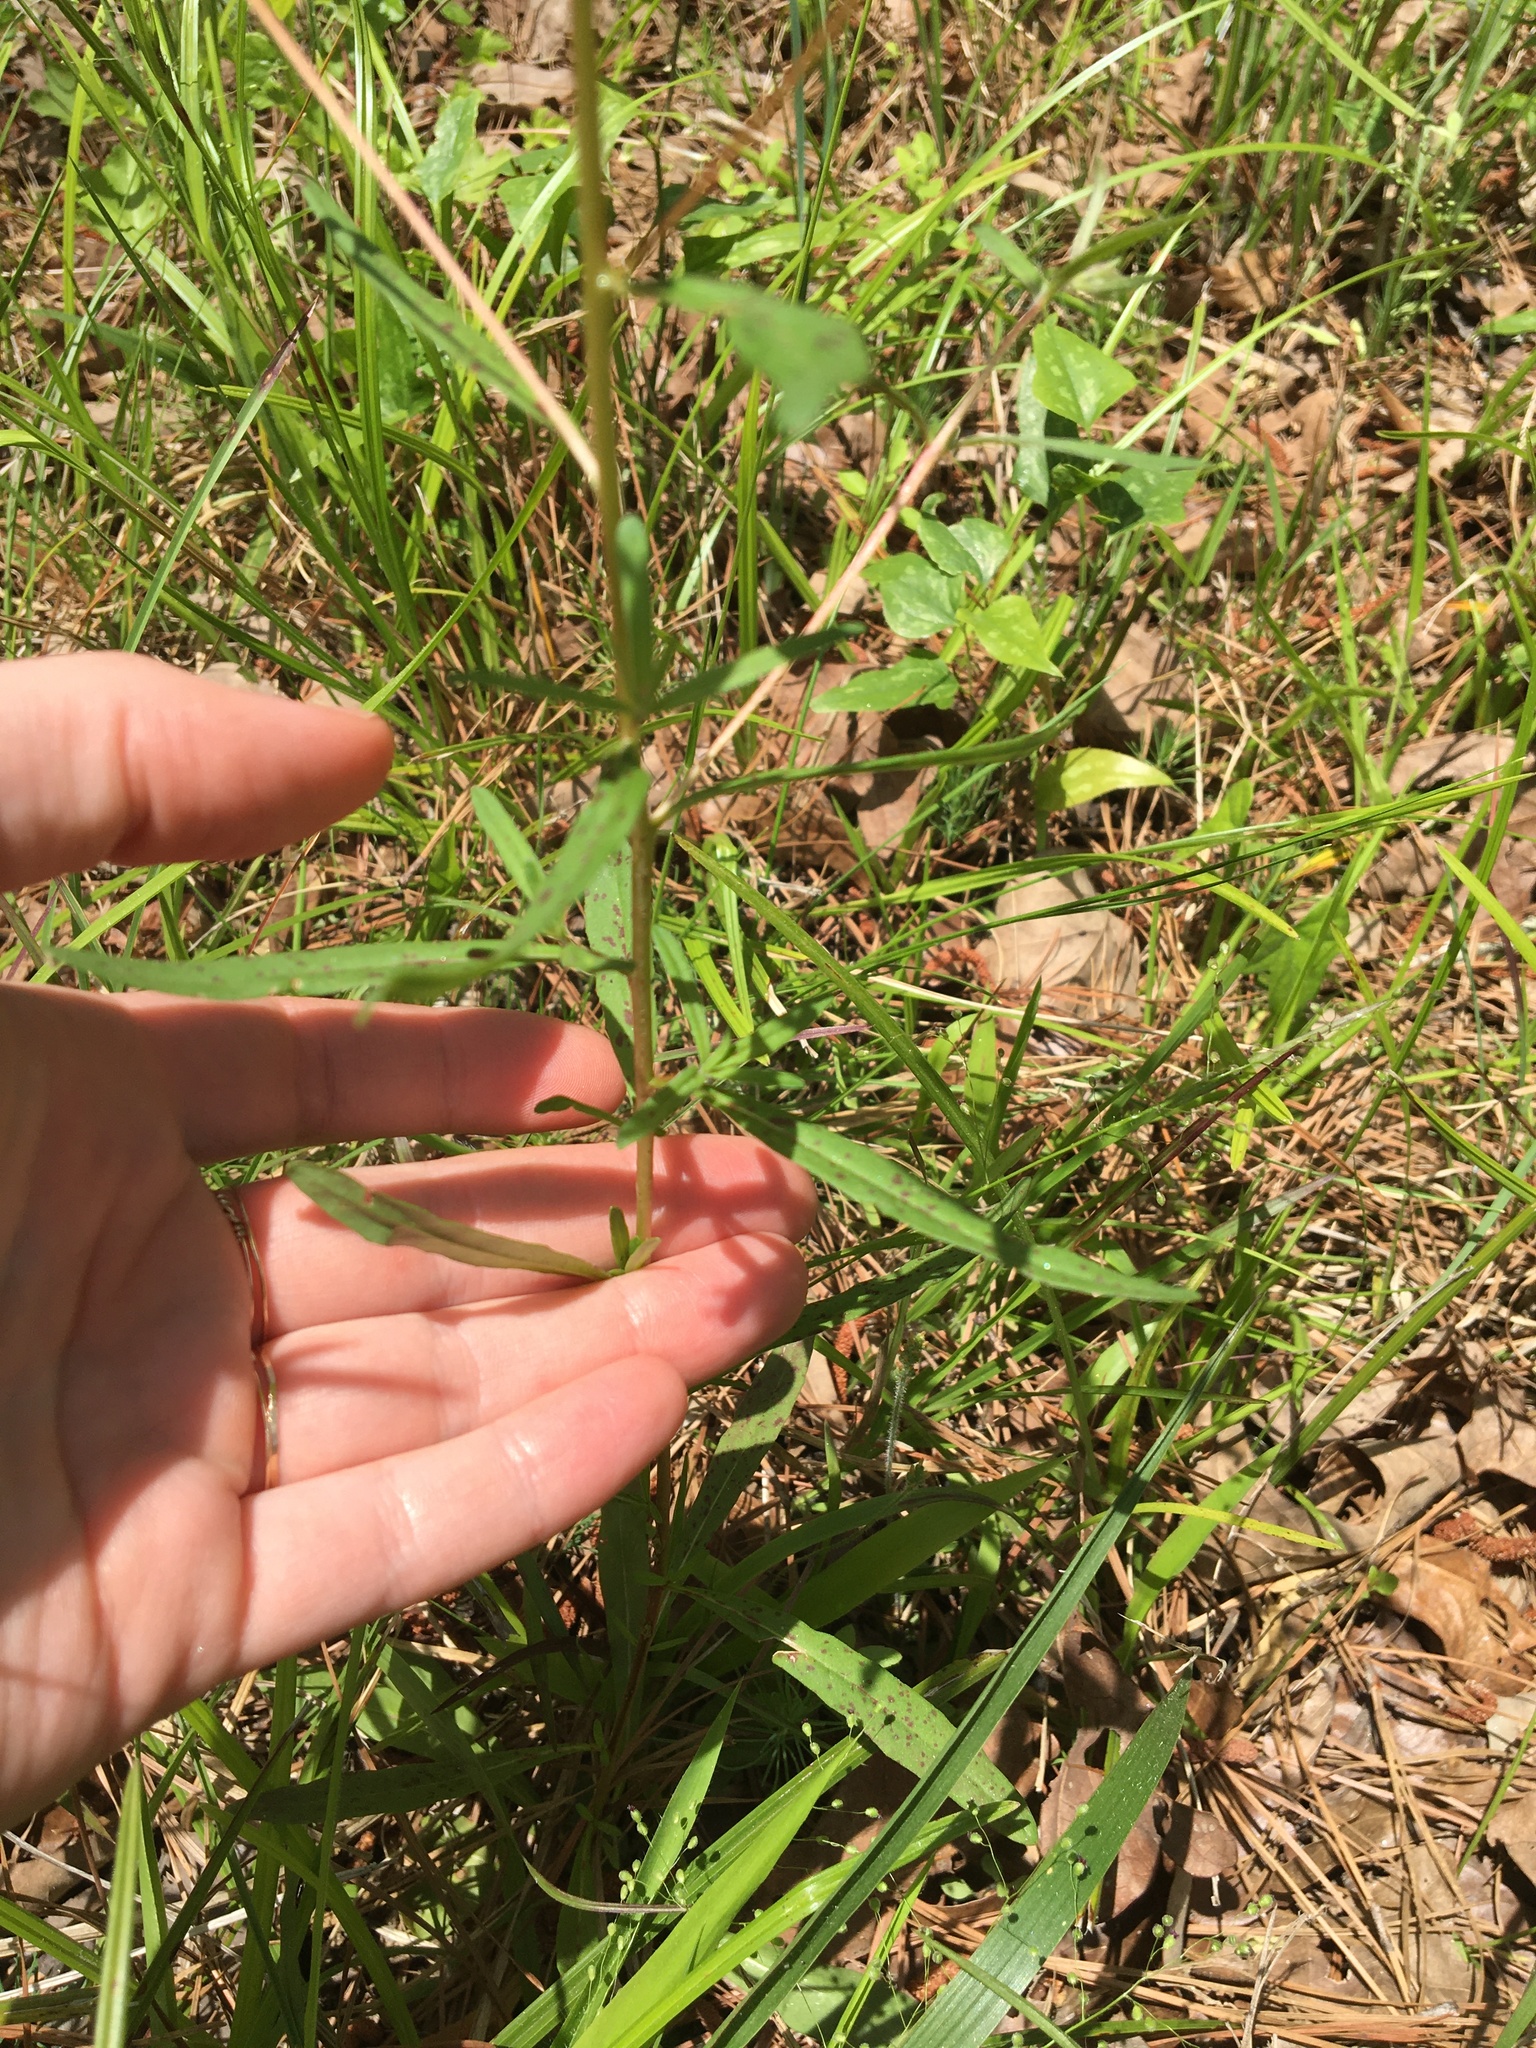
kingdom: Plantae
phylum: Tracheophyta
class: Magnoliopsida
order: Myrtales
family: Onagraceae
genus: Oenothera
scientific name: Oenothera fruticosa
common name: Southern sundrops
